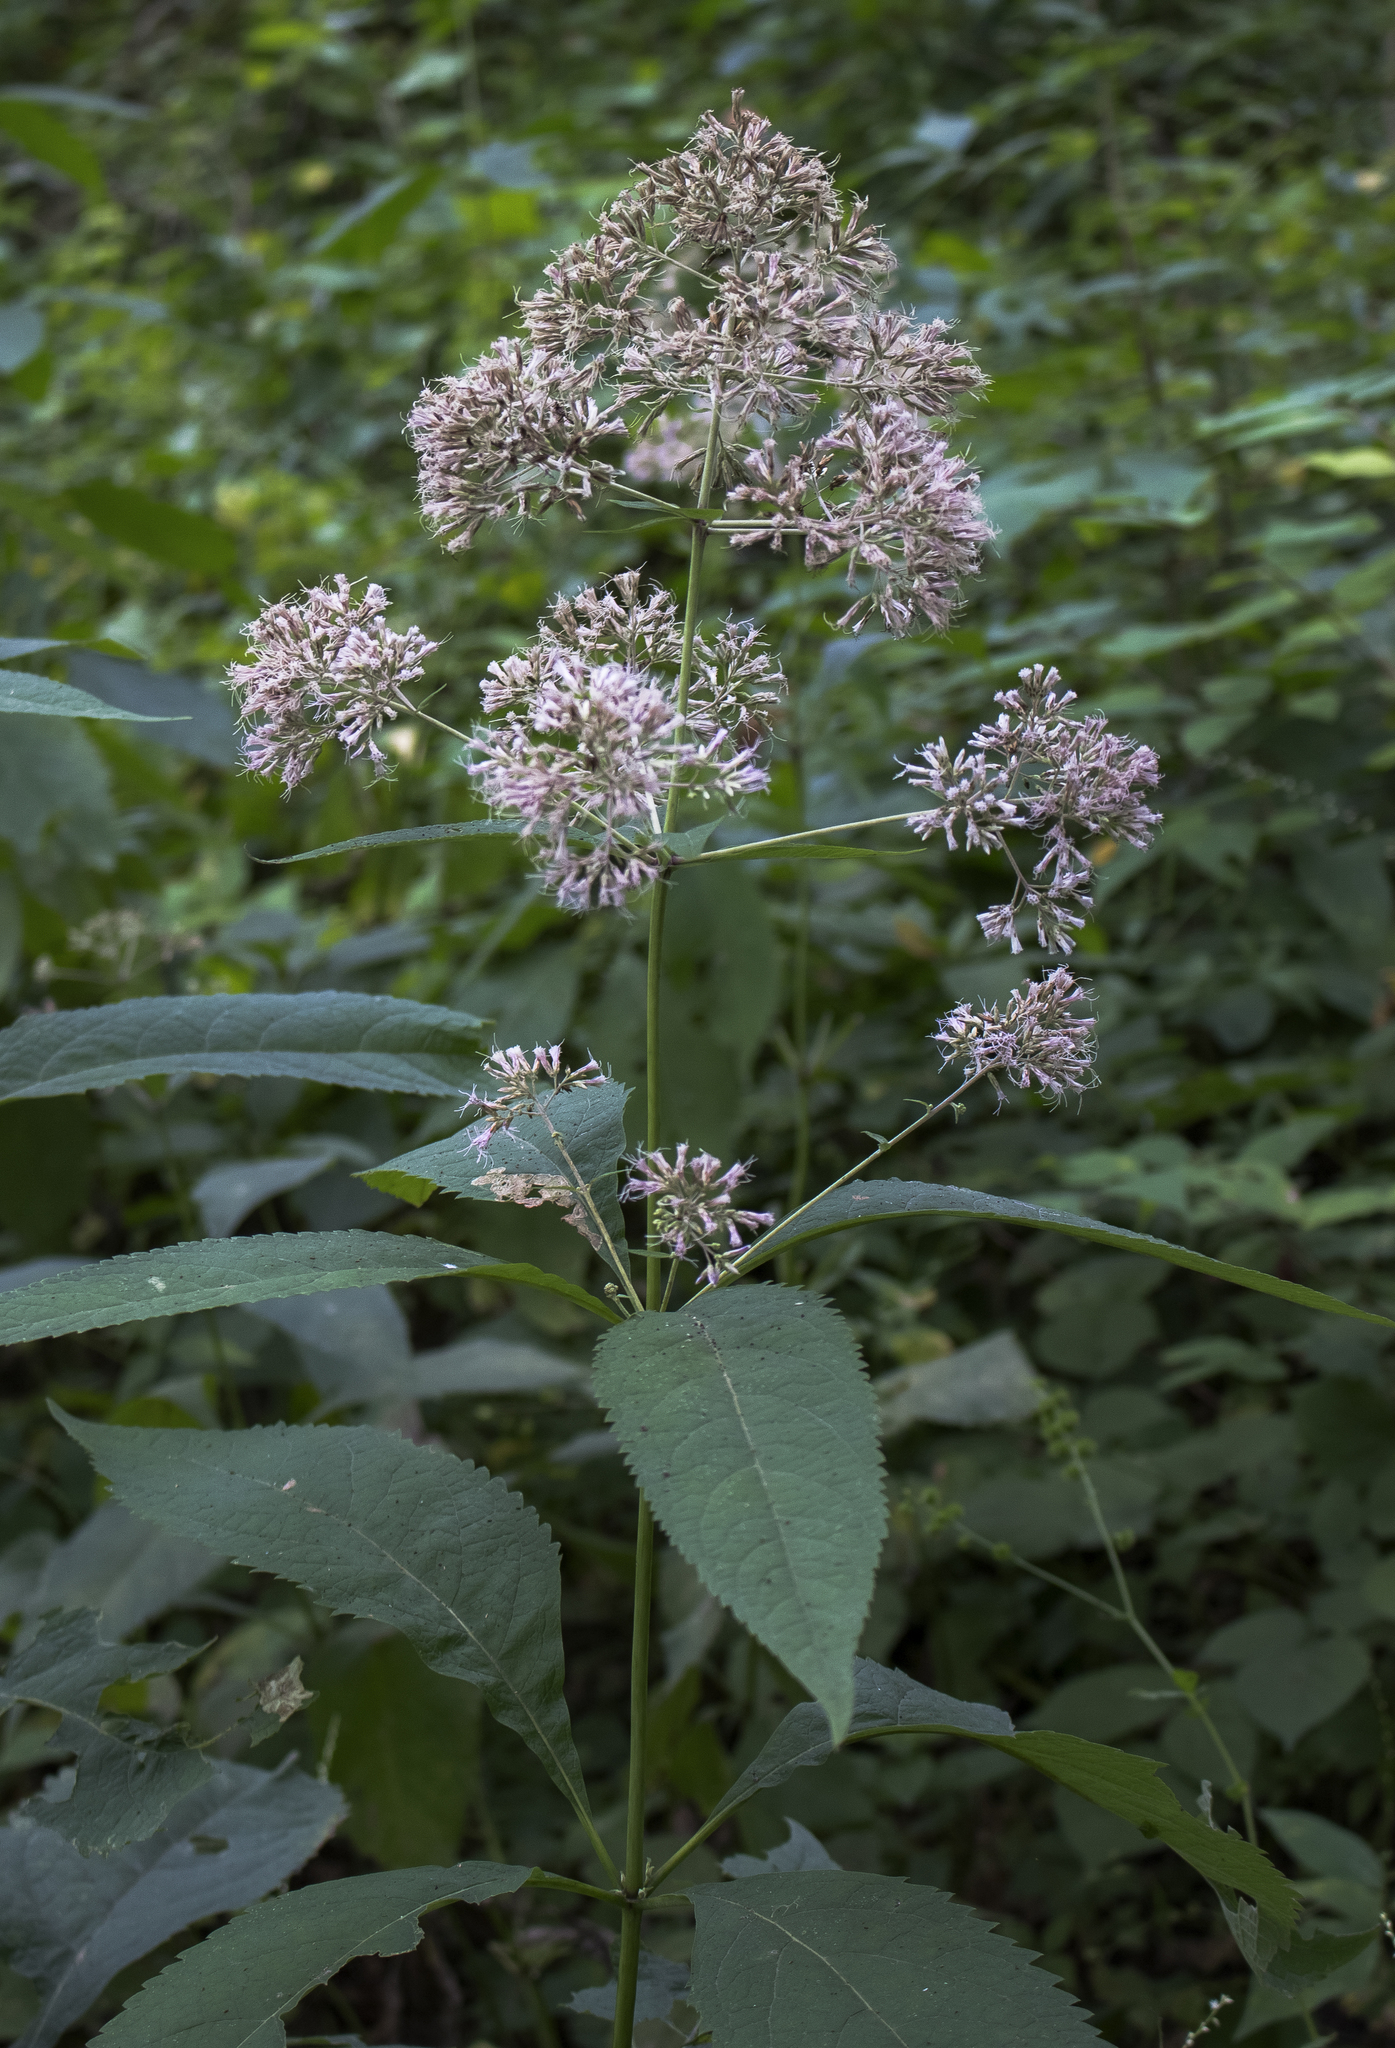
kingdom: Plantae
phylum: Tracheophyta
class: Magnoliopsida
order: Asterales
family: Asteraceae
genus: Eutrochium
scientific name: Eutrochium purpureum
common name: Gravelroot
